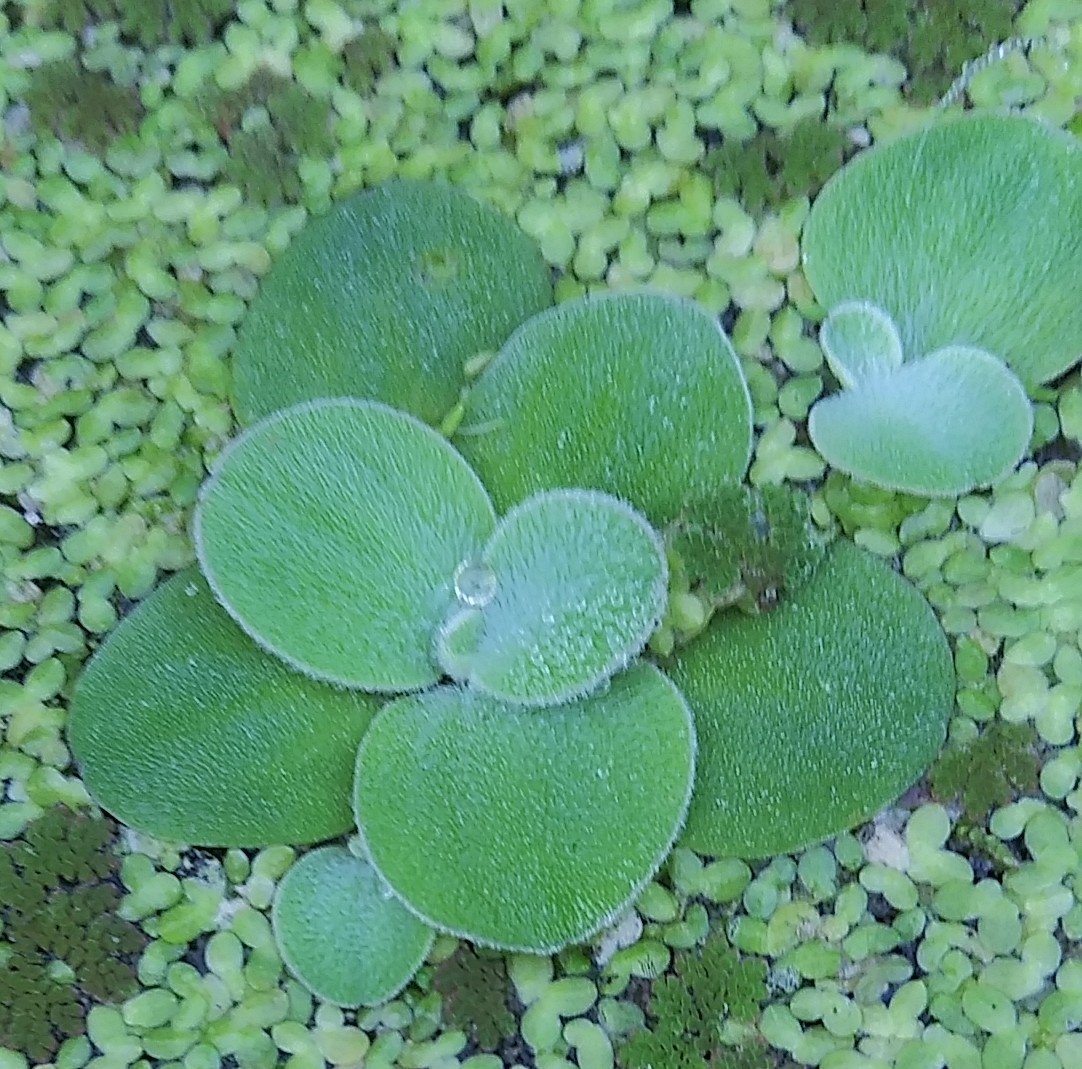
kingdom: Plantae
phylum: Tracheophyta
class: Liliopsida
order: Alismatales
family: Araceae
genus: Pistia
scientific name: Pistia stratiotes
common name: Water lettuce
